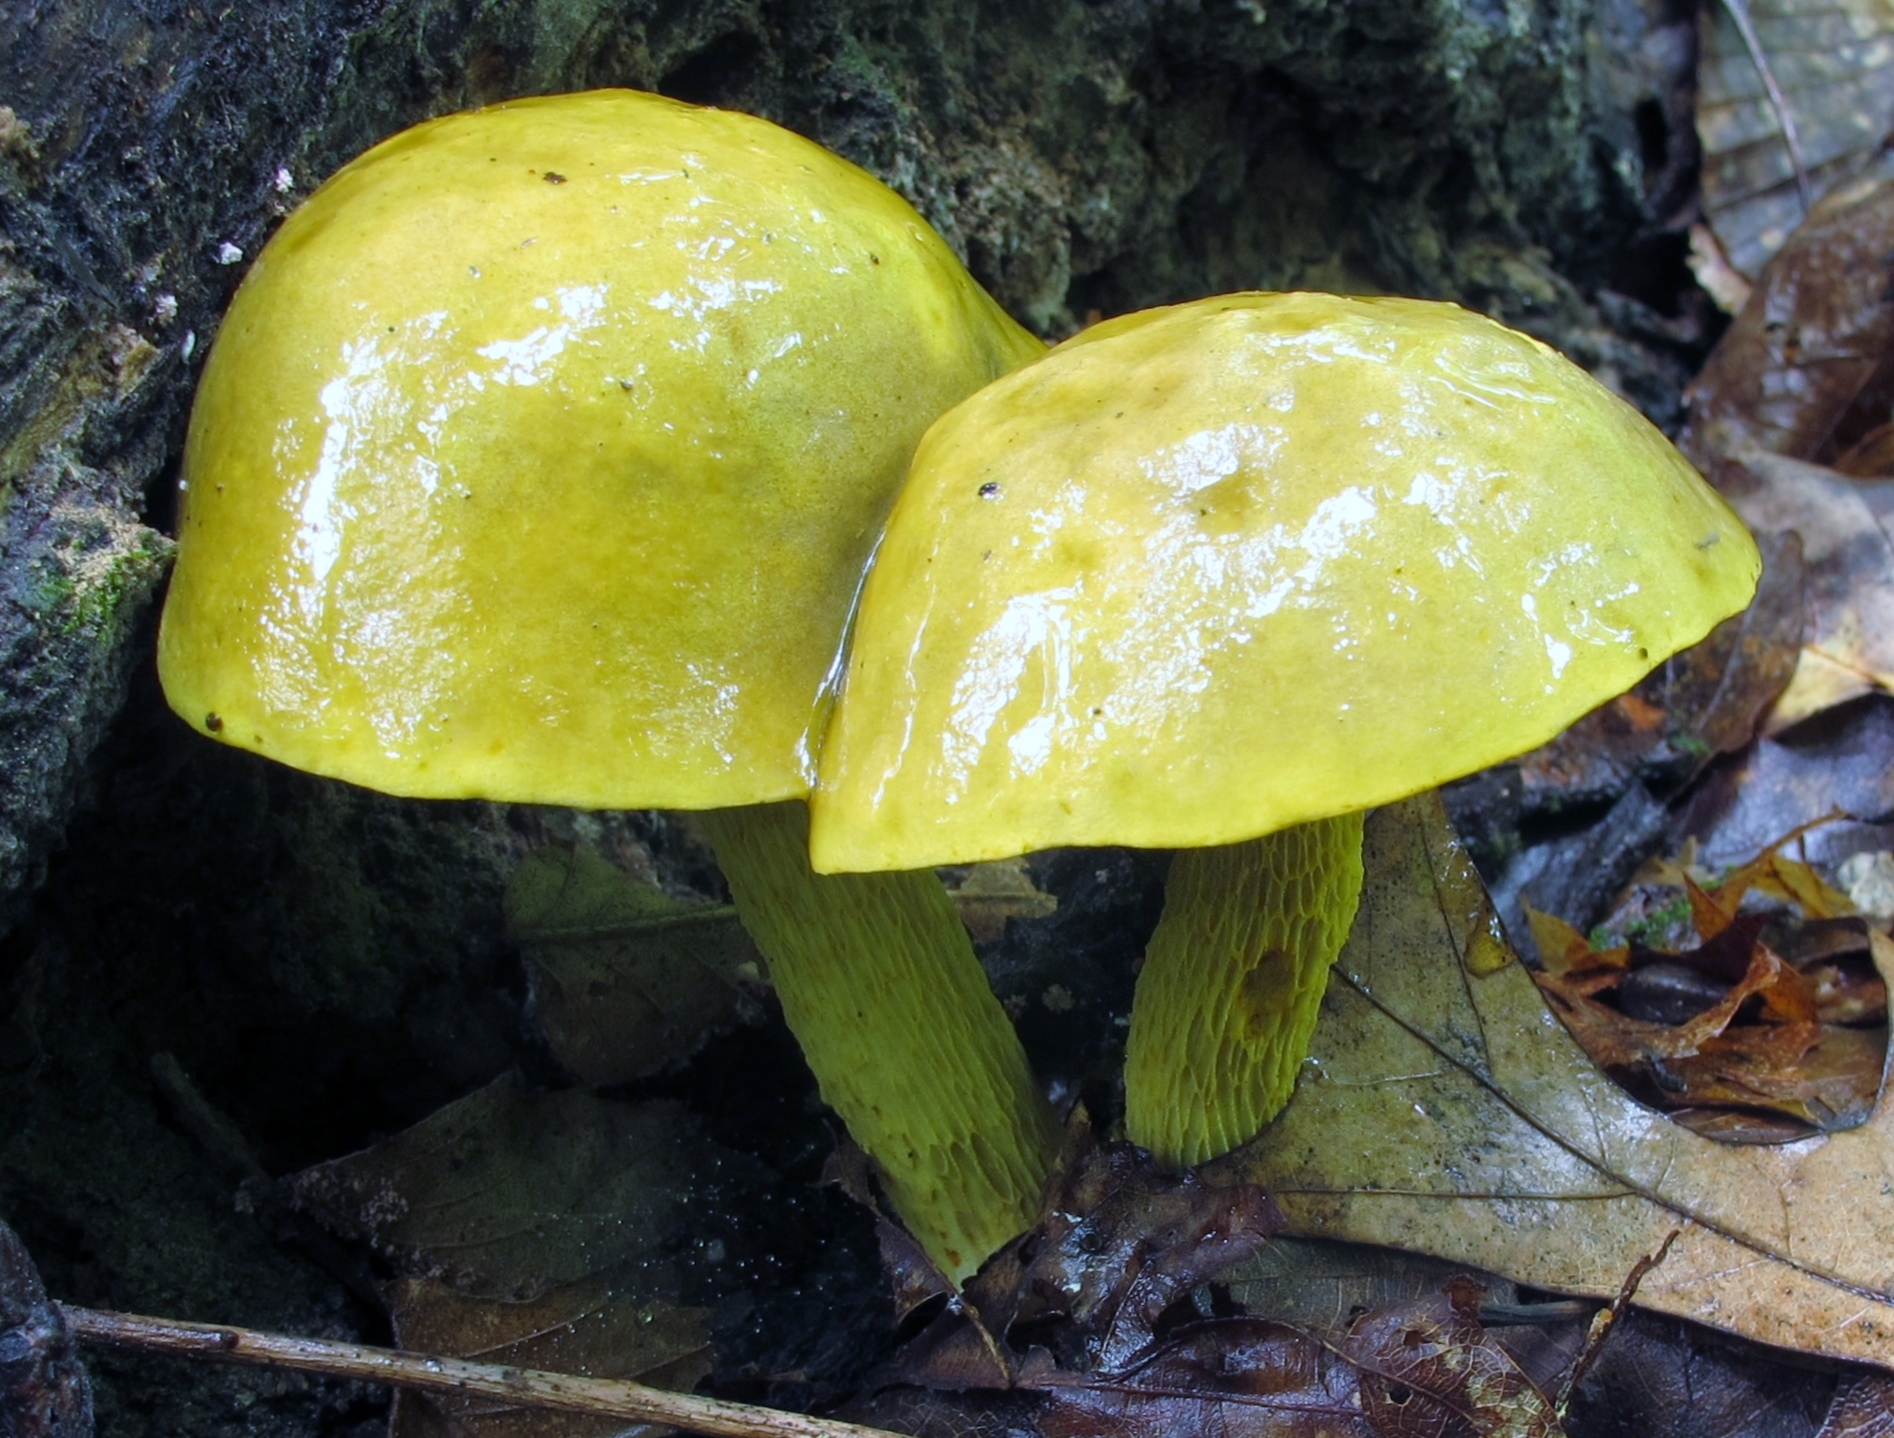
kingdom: Fungi
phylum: Basidiomycota
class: Agaricomycetes
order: Boletales
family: Boletaceae
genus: Retiboletus
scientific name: Retiboletus ornatipes
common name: Ornate-stalked bolete
